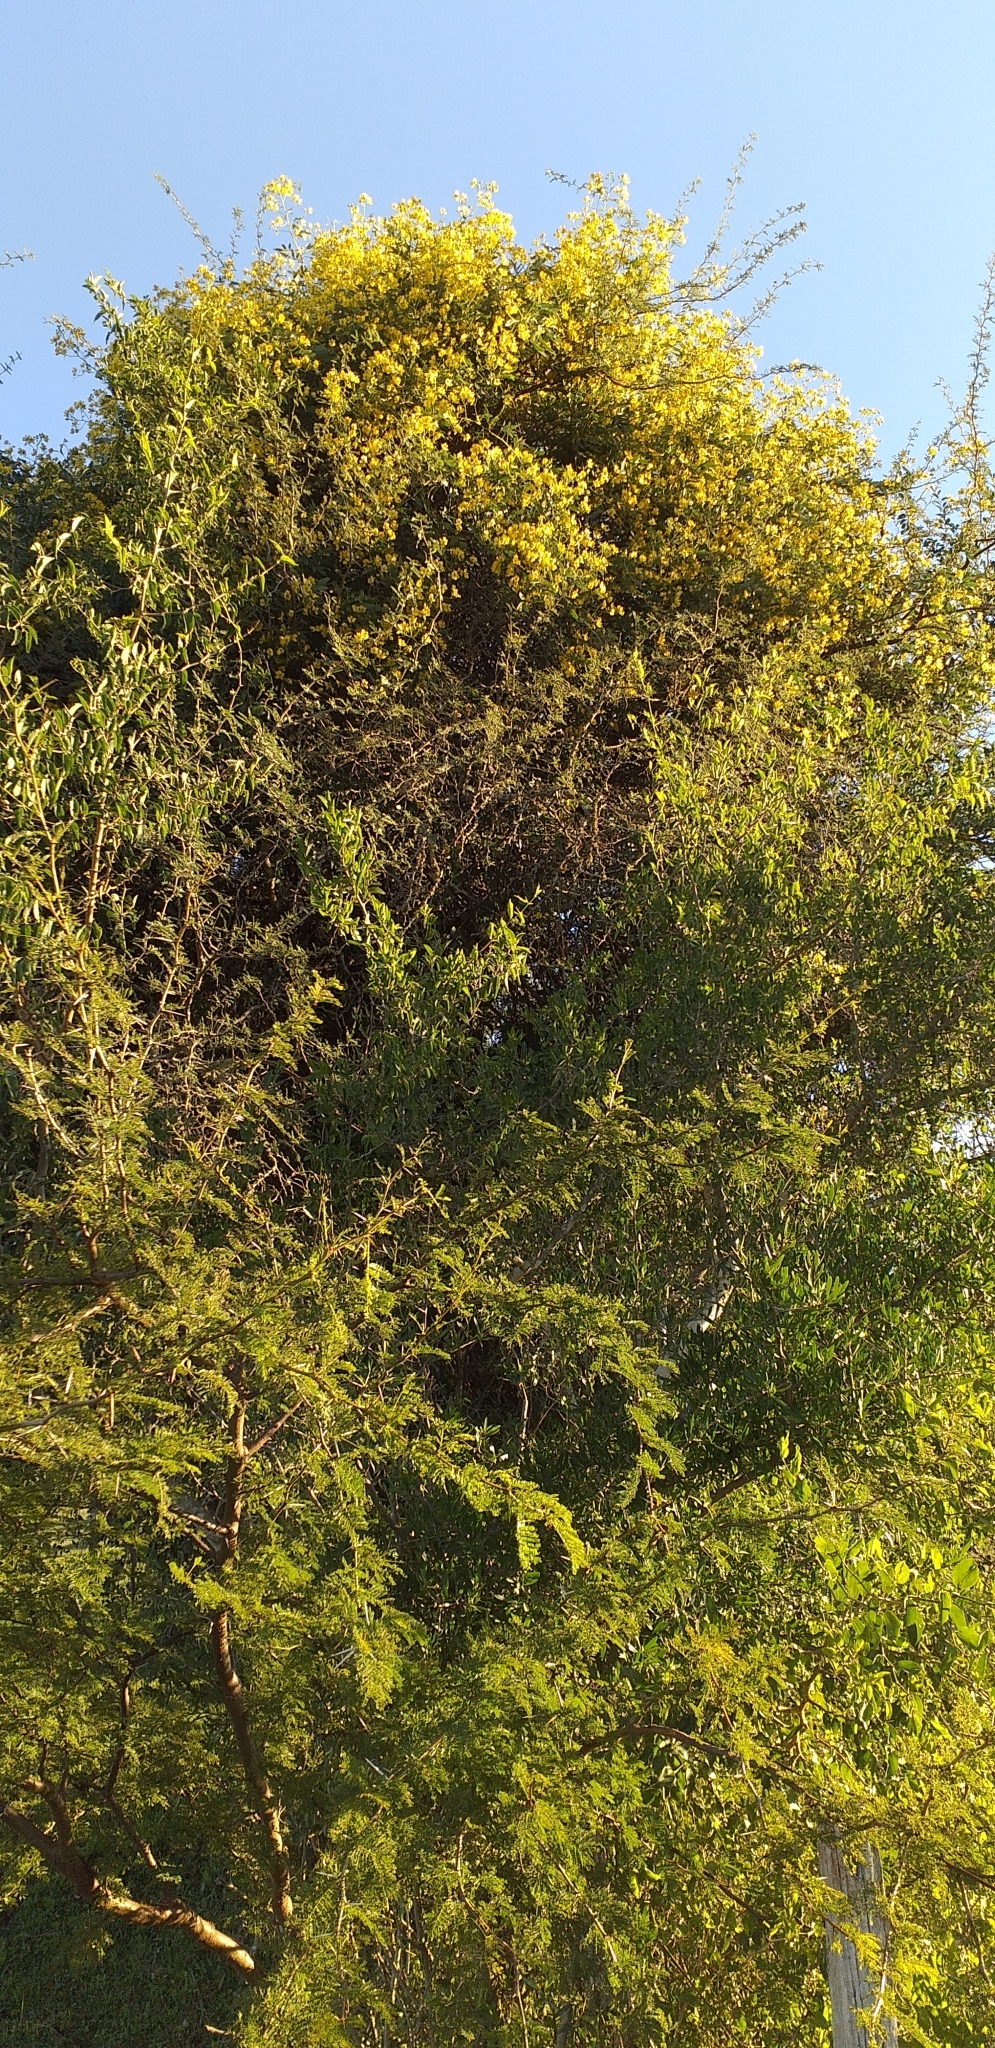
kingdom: Plantae
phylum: Tracheophyta
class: Magnoliopsida
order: Fabales
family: Fabaceae
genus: Senna
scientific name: Senna corymbosa
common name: Argentine senna
